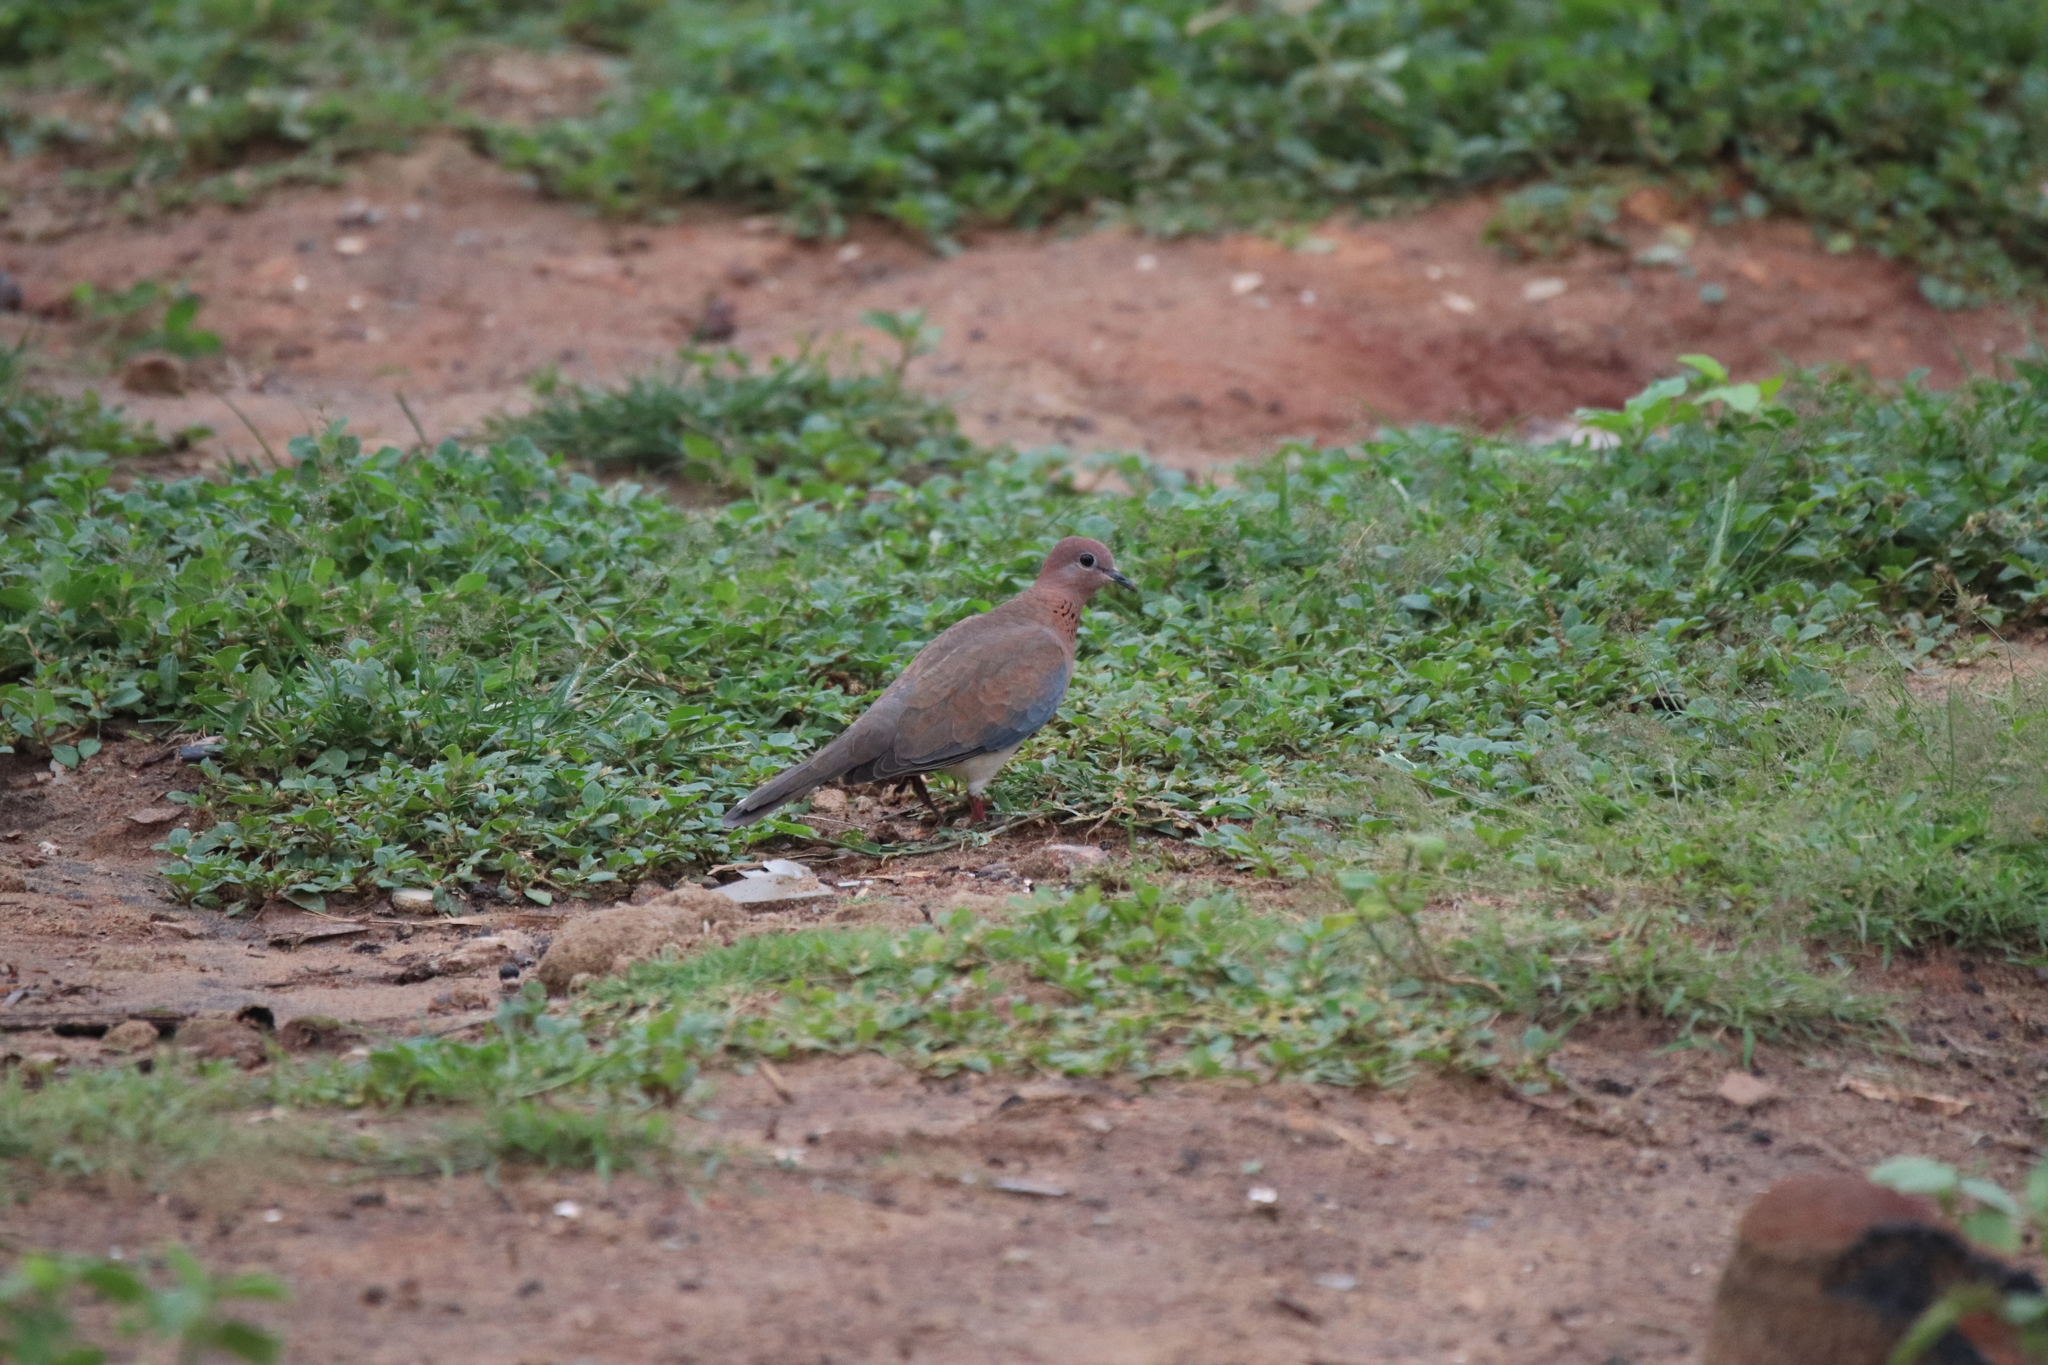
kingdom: Animalia
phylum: Chordata
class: Aves
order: Columbiformes
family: Columbidae
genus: Spilopelia
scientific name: Spilopelia senegalensis
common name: Laughing dove
